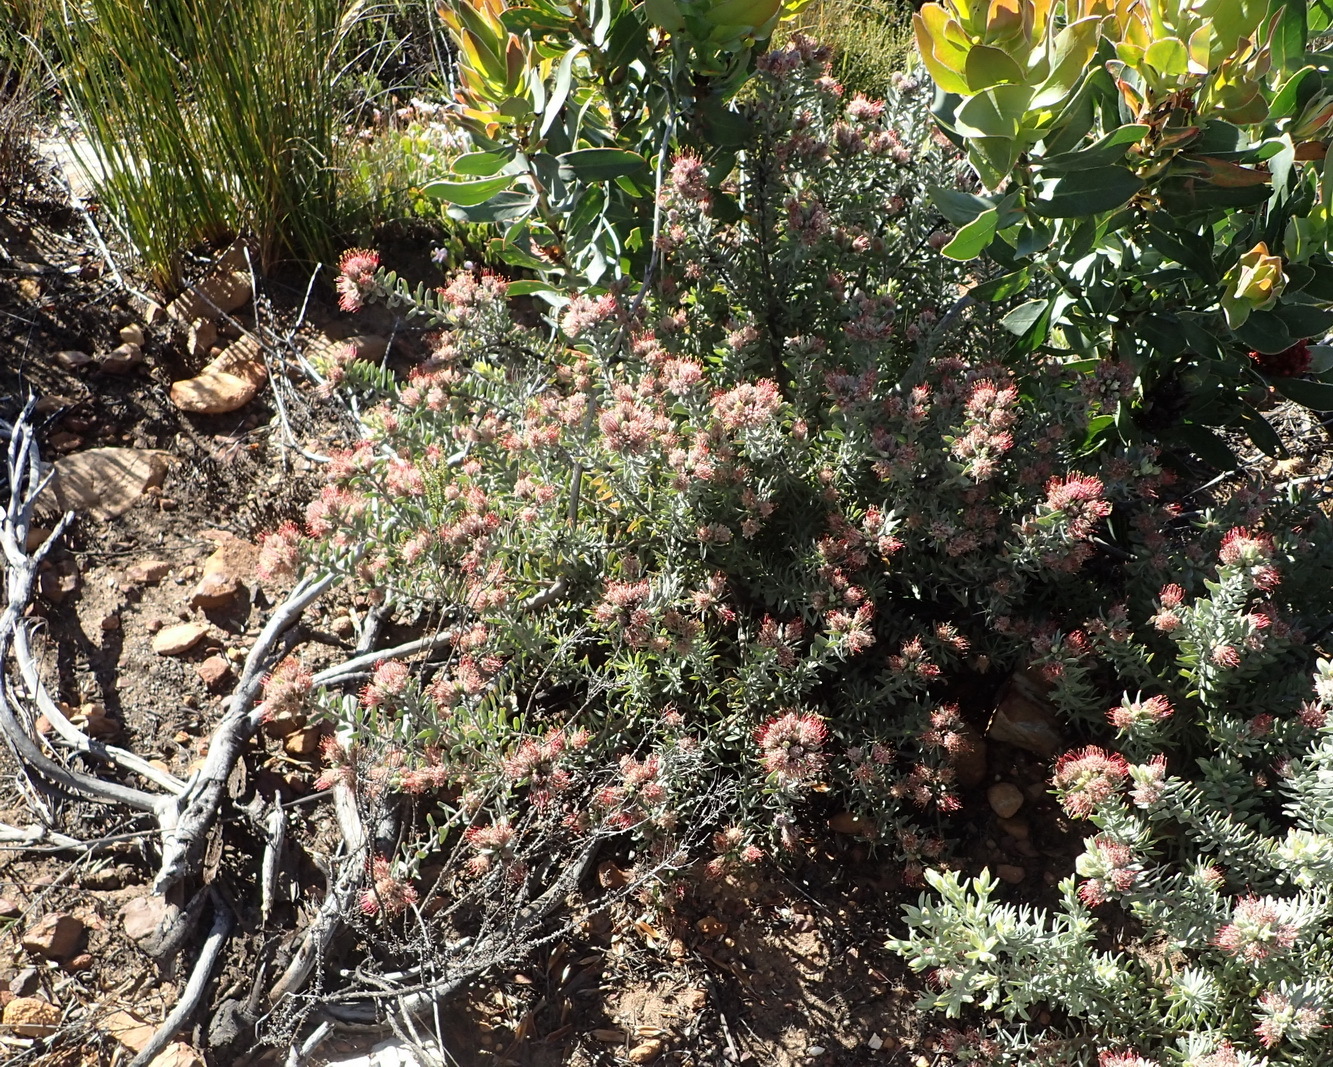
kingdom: Plantae
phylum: Tracheophyta
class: Magnoliopsida
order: Proteales
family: Proteaceae
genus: Leucospermum
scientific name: Leucospermum wittebergense
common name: Swartberg pincushion
